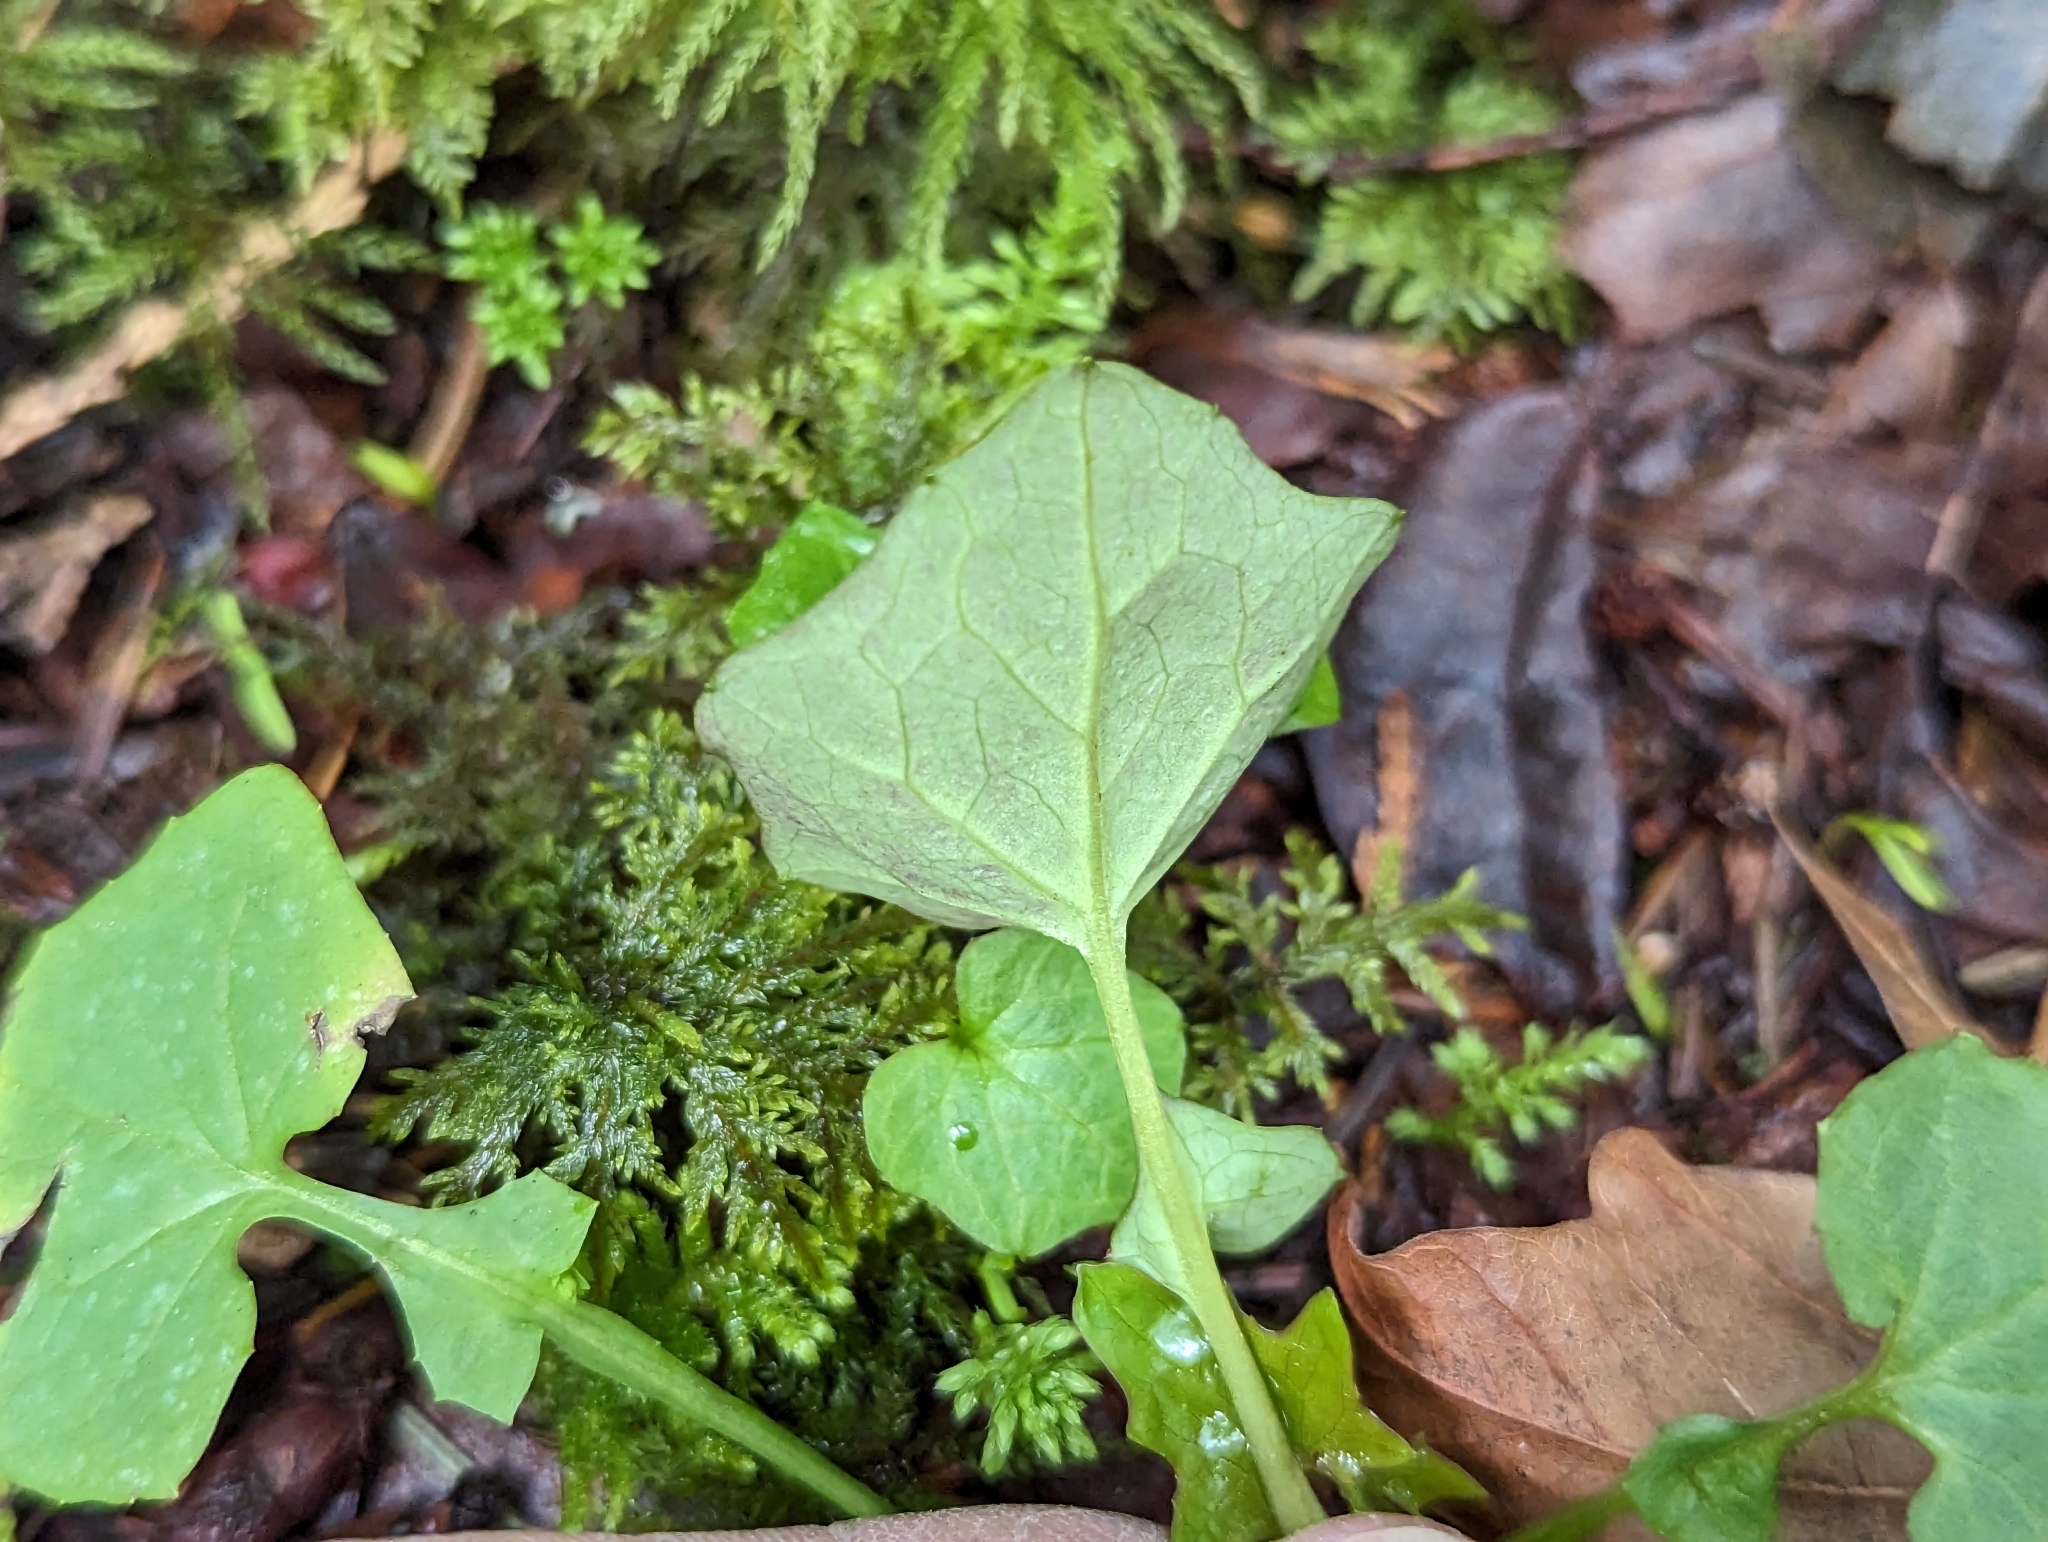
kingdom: Plantae
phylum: Tracheophyta
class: Magnoliopsida
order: Asterales
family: Asteraceae
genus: Mycelis
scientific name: Mycelis muralis
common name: Wall lettuce
